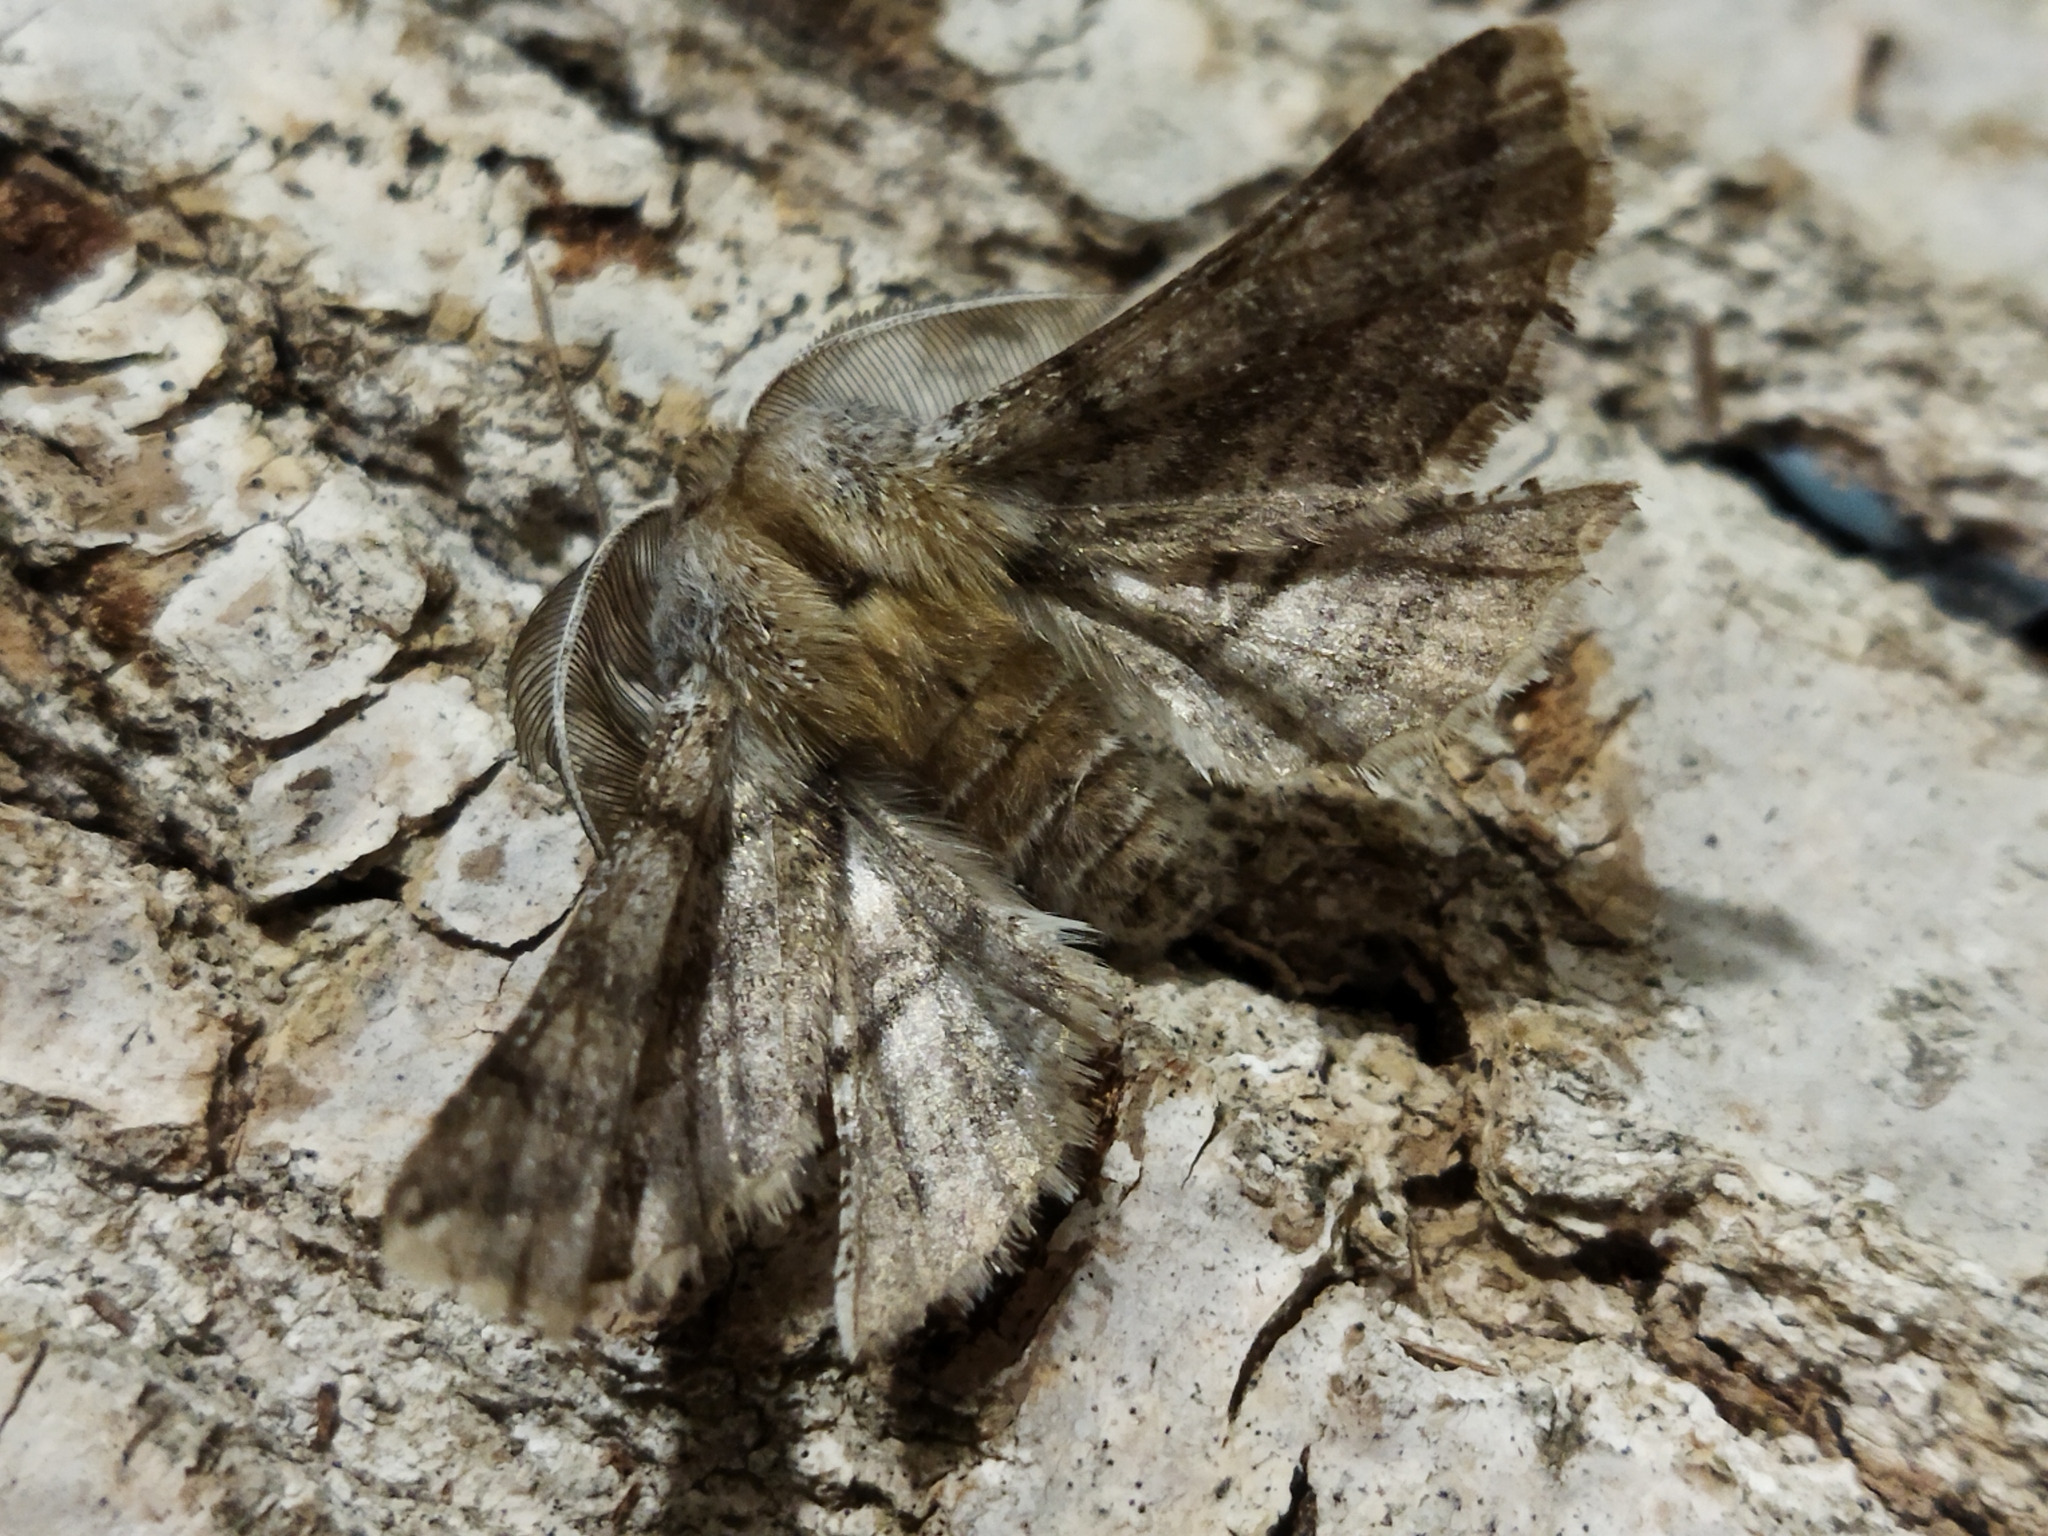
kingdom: Animalia
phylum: Arthropoda
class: Insecta
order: Lepidoptera
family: Geometridae
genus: Apochima
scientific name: Apochima flabellaria
